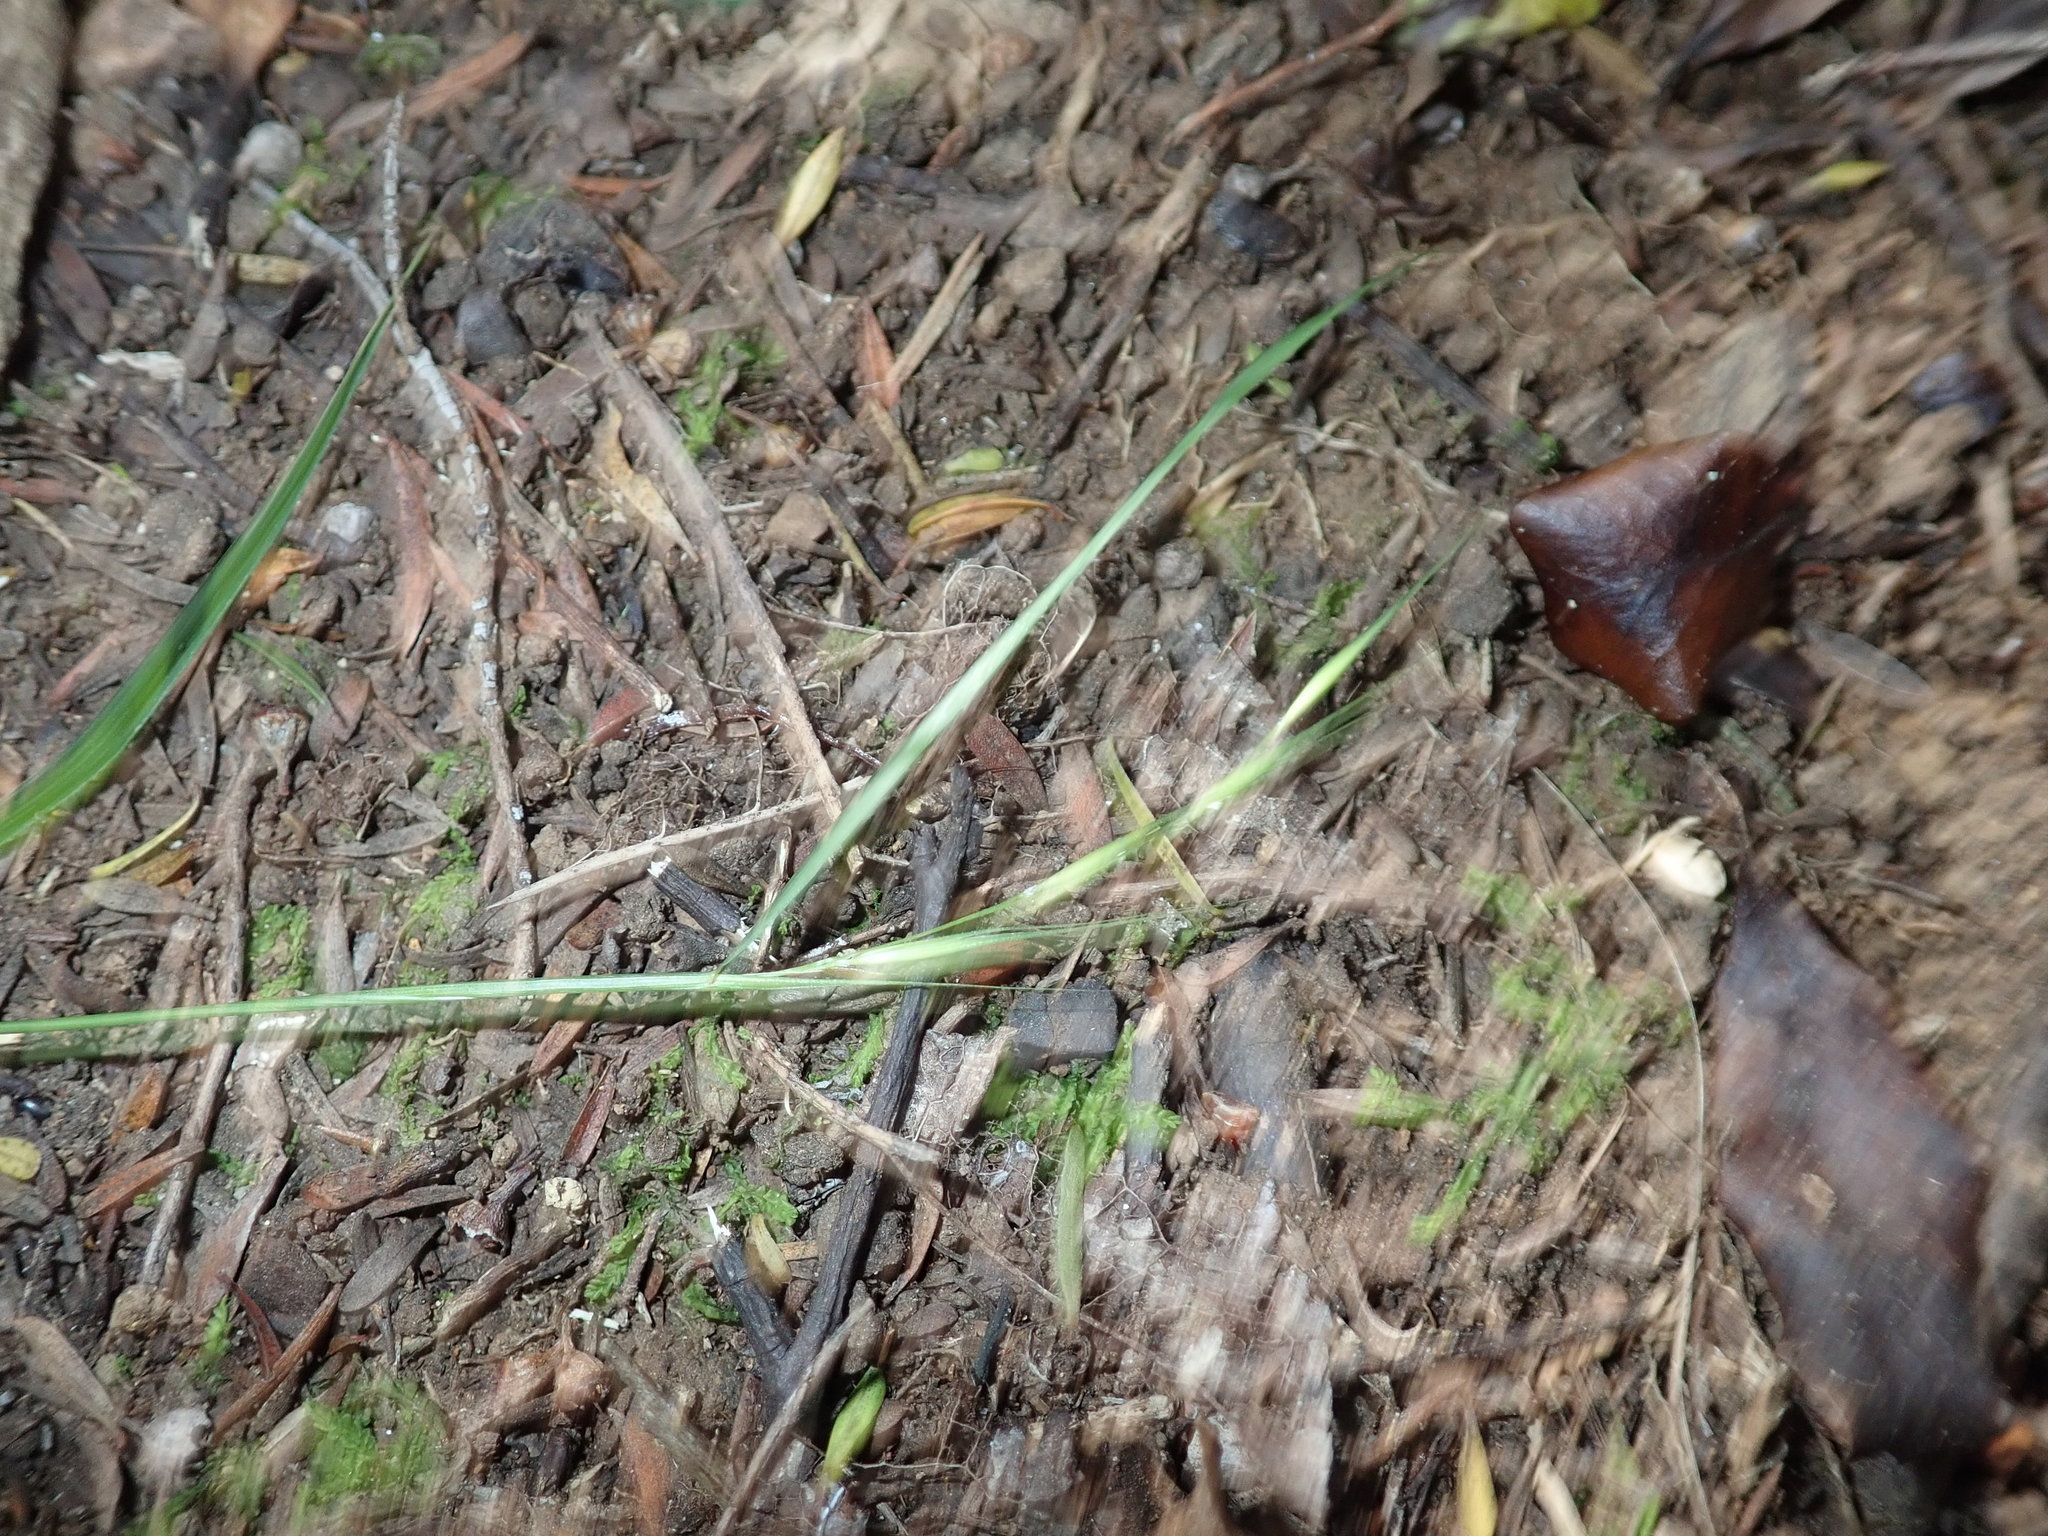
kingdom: Plantae
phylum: Tracheophyta
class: Liliopsida
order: Poales
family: Poaceae
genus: Microlaena
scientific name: Microlaena stipoides
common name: Meadow ricegrass
